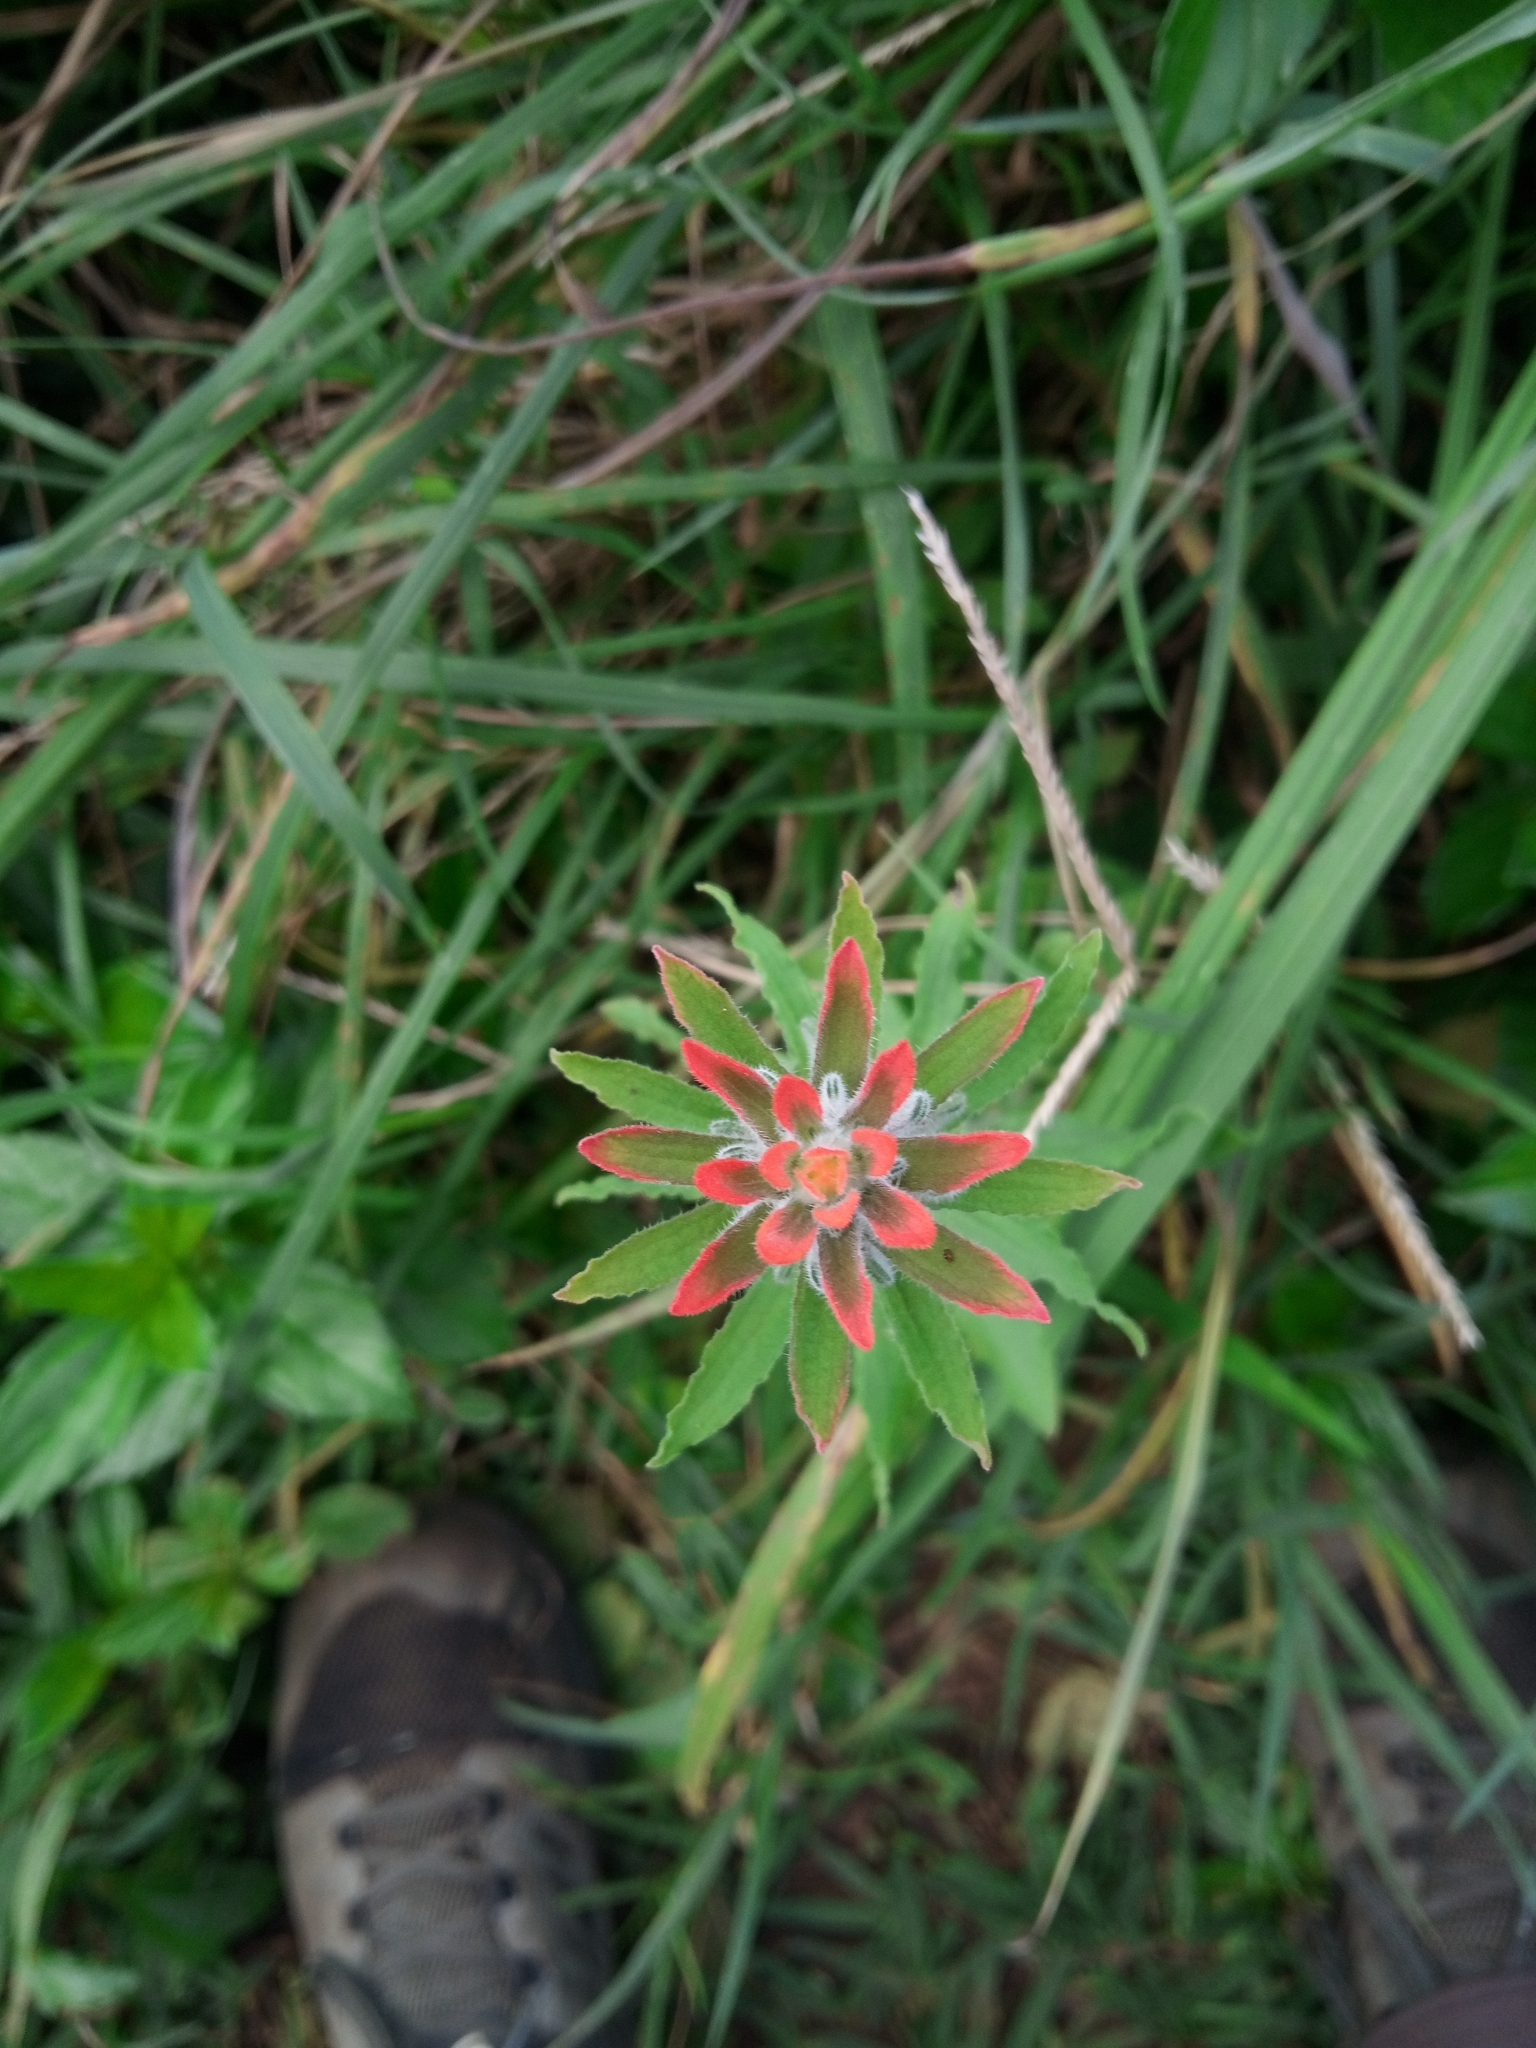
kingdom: Plantae
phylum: Tracheophyta
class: Magnoliopsida
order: Lamiales
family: Orobanchaceae
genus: Castilleja
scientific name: Castilleja arvensis
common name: Indian paintbrush
